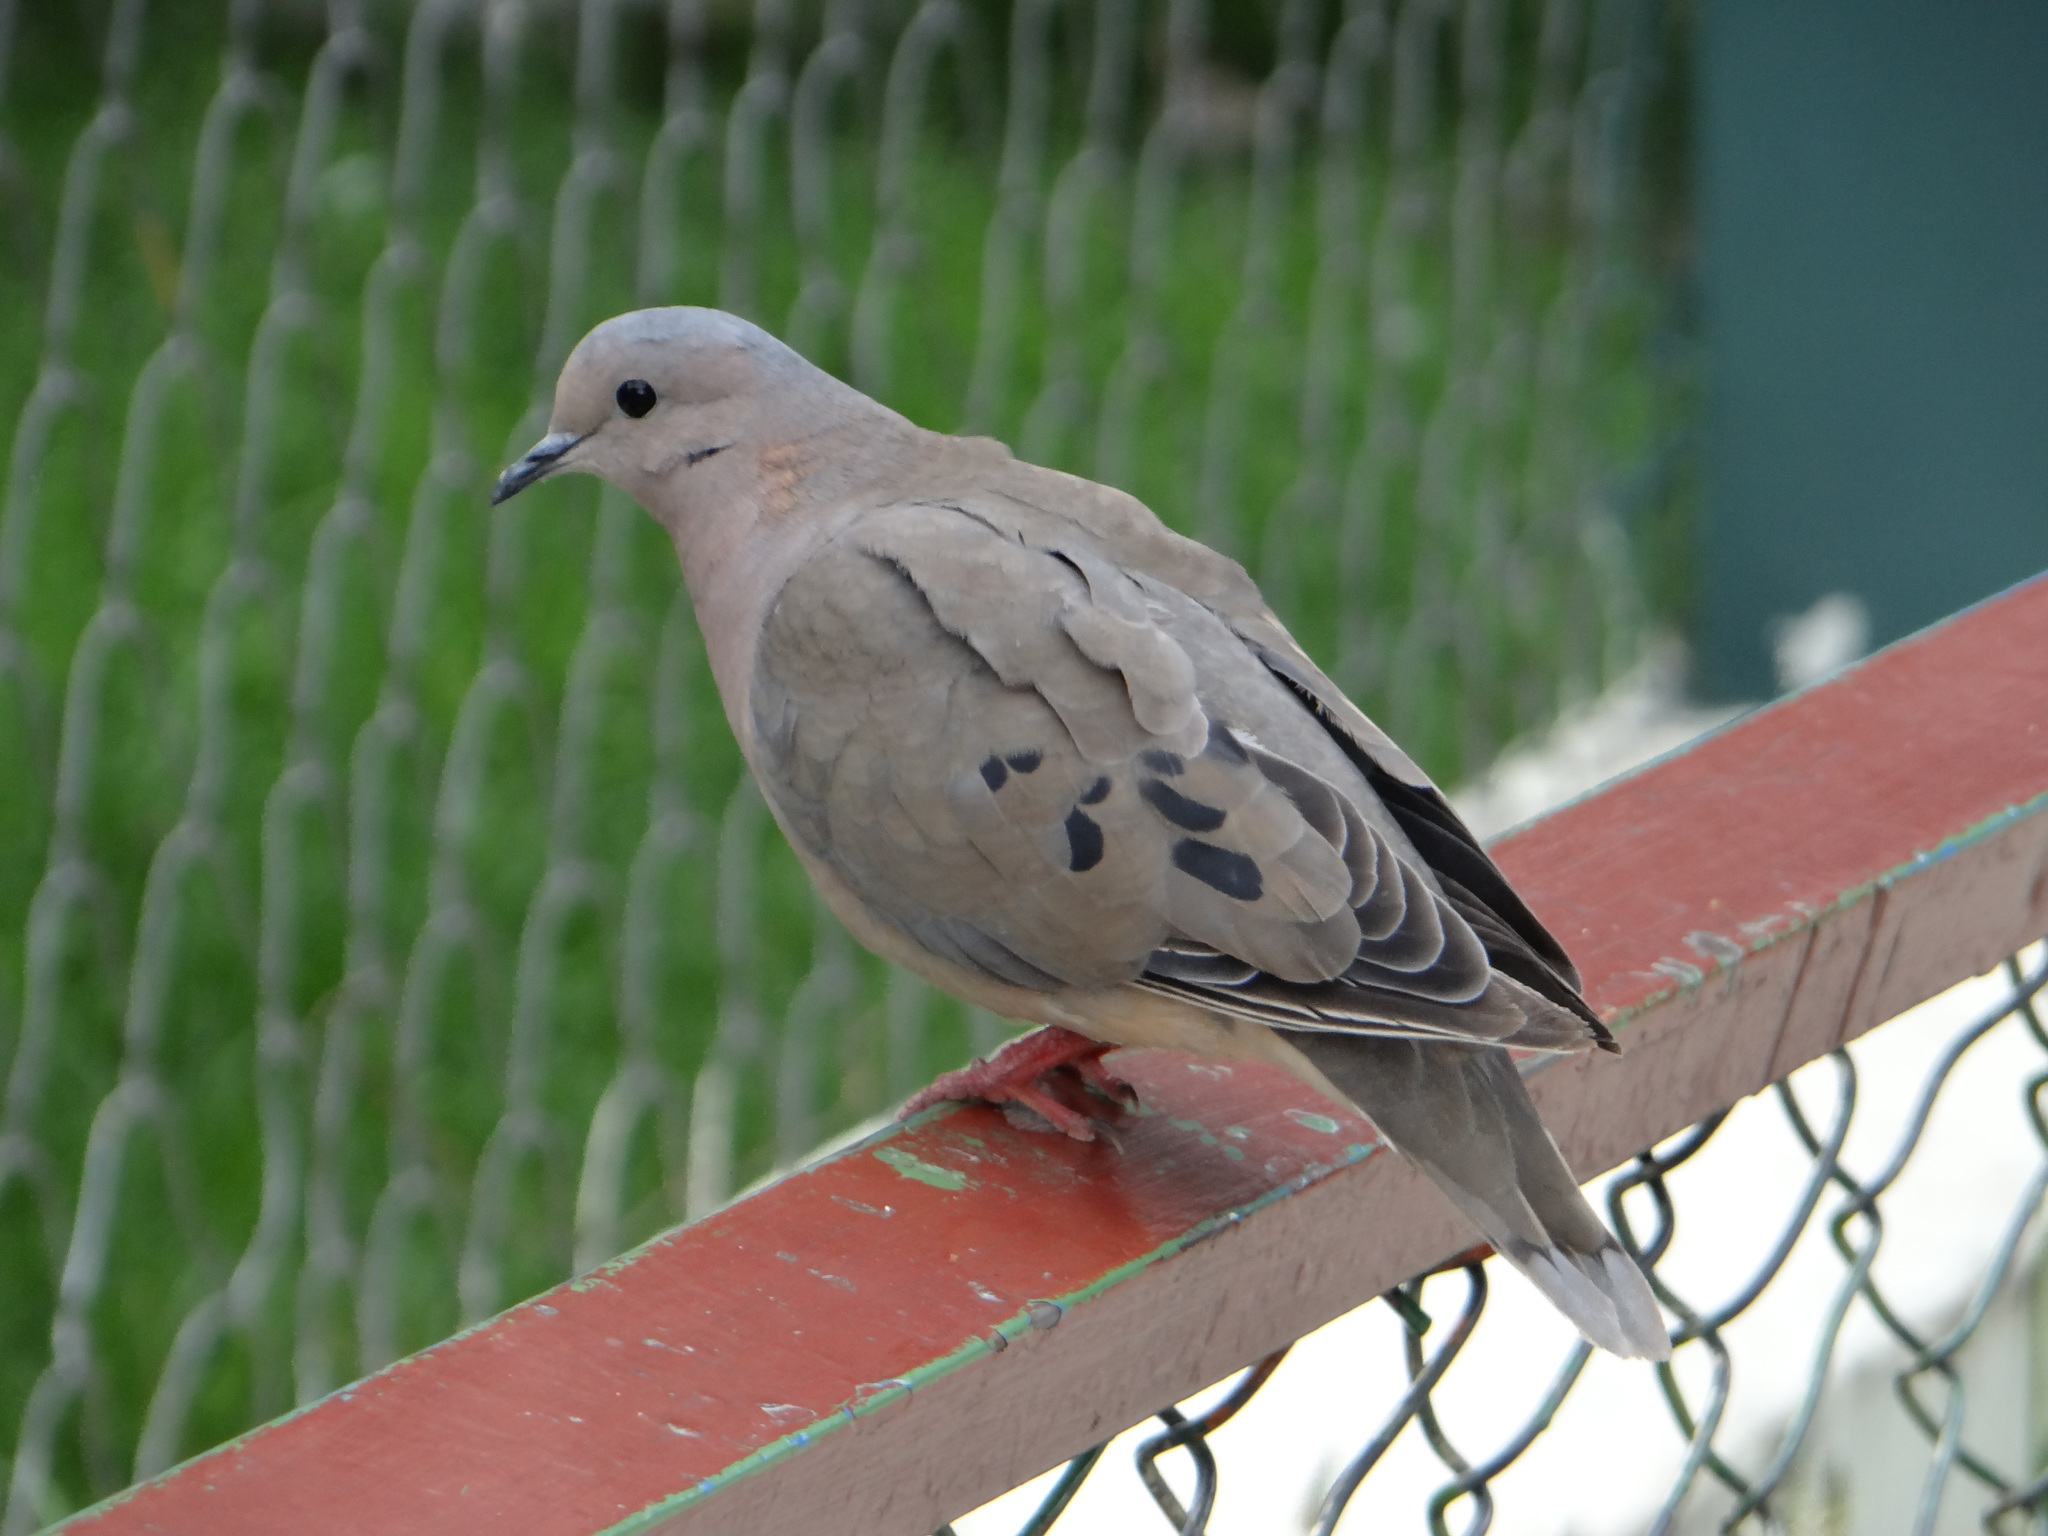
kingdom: Animalia
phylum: Chordata
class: Aves
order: Columbiformes
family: Columbidae
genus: Zenaida
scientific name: Zenaida auriculata
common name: Eared dove
